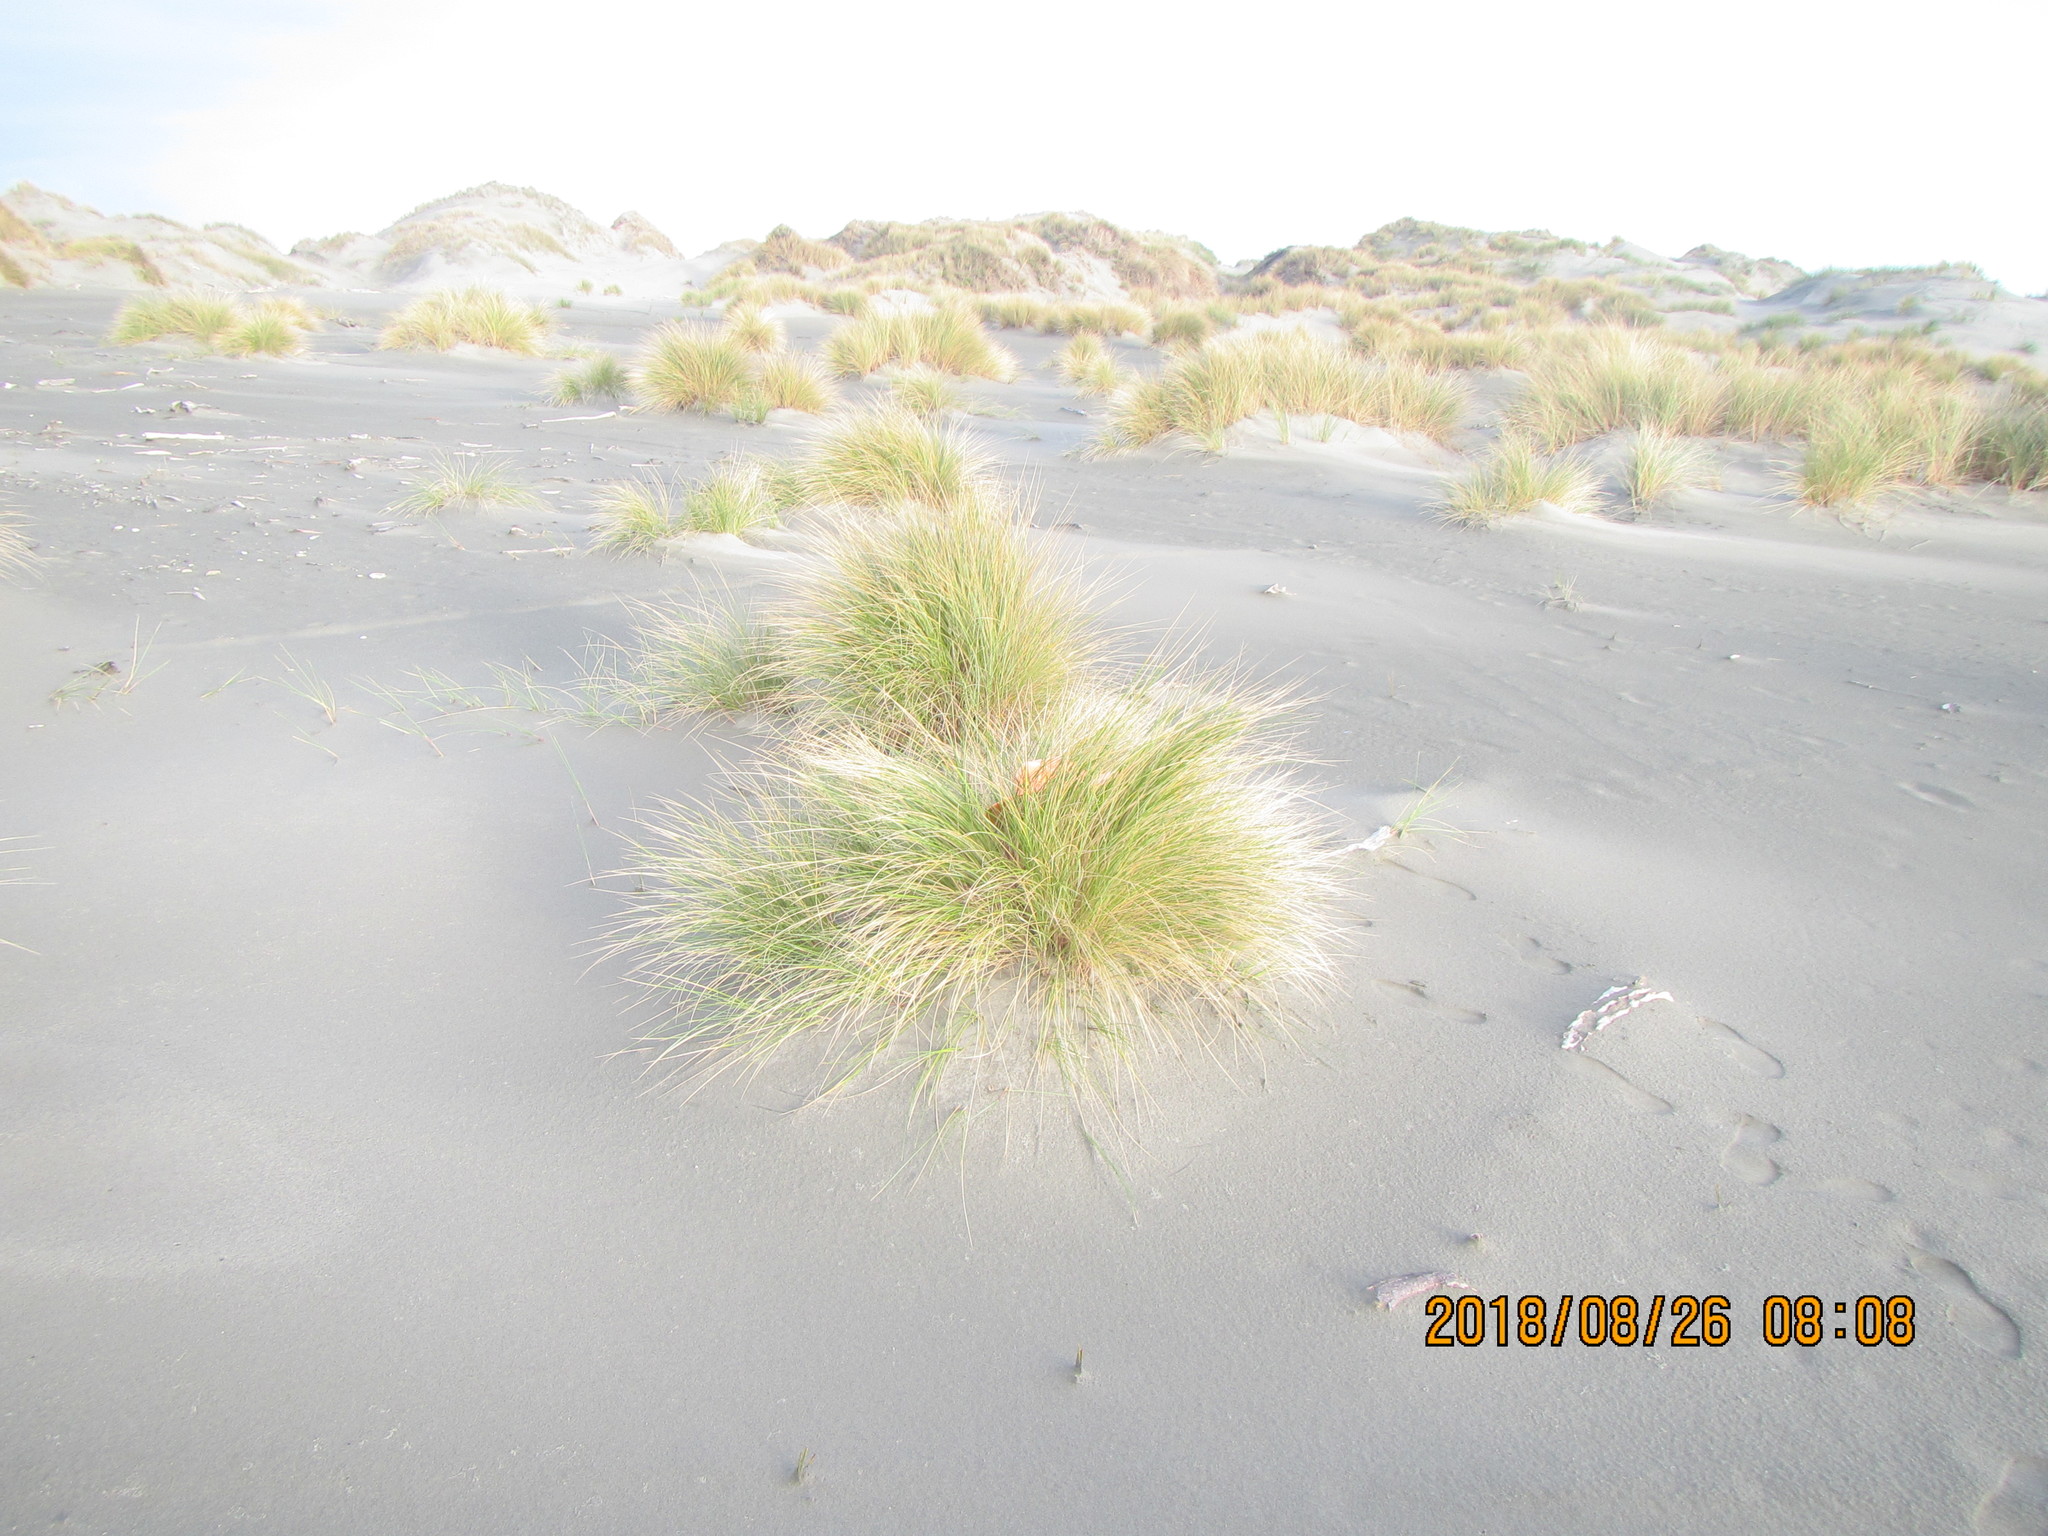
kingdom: Animalia
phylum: Arthropoda
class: Arachnida
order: Araneae
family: Theridiidae
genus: Steatoda
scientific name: Steatoda capensis
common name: Cobweb weaver
